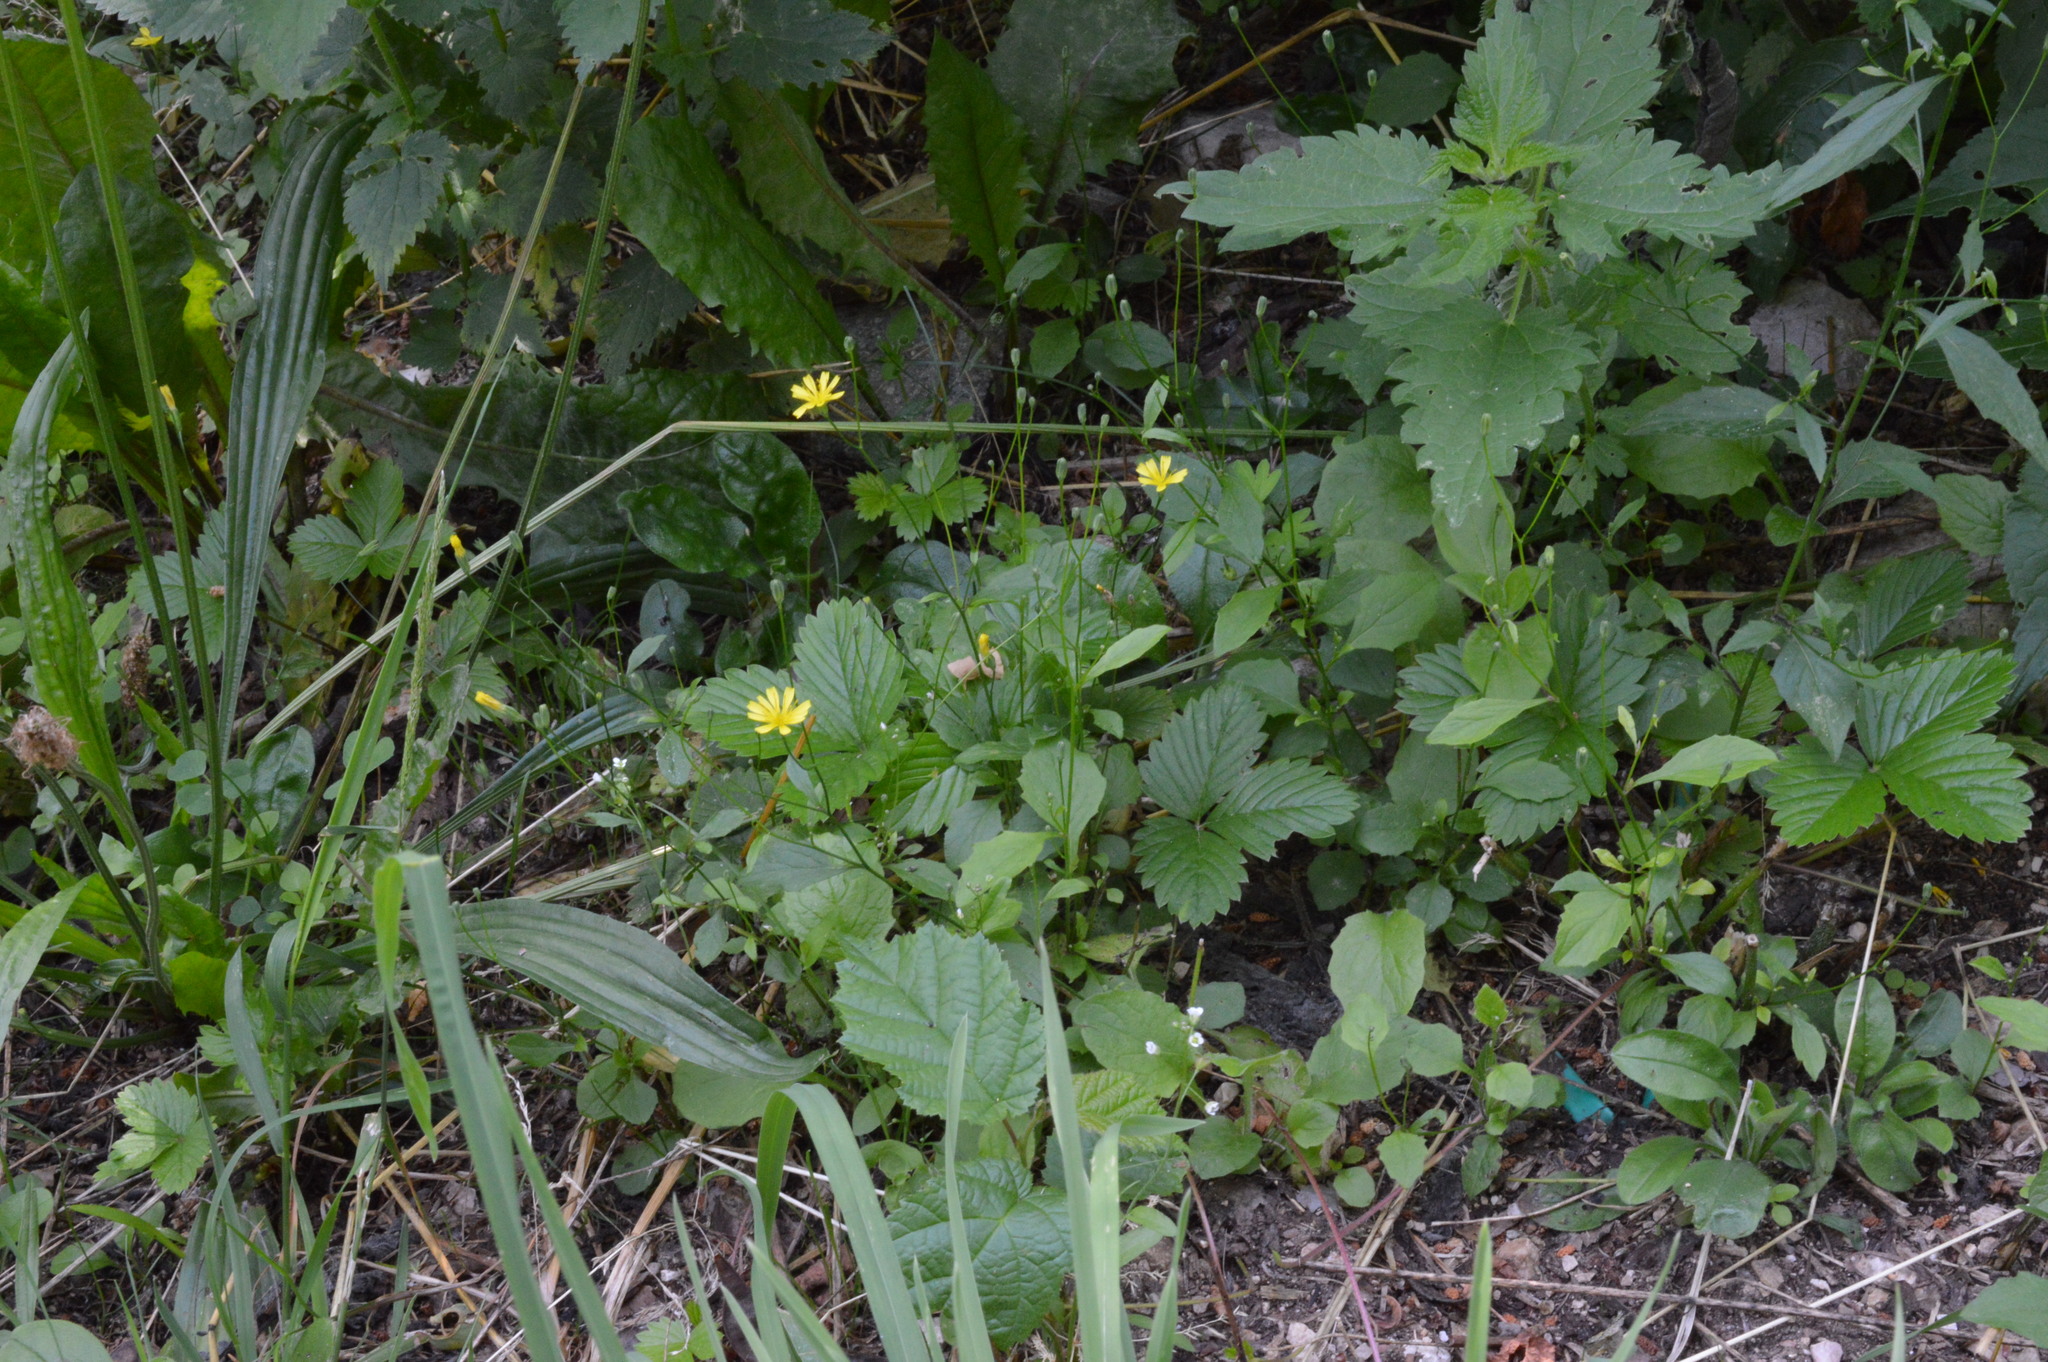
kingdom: Plantae
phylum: Tracheophyta
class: Magnoliopsida
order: Asterales
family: Asteraceae
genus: Lapsana
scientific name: Lapsana communis
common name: Nipplewort
